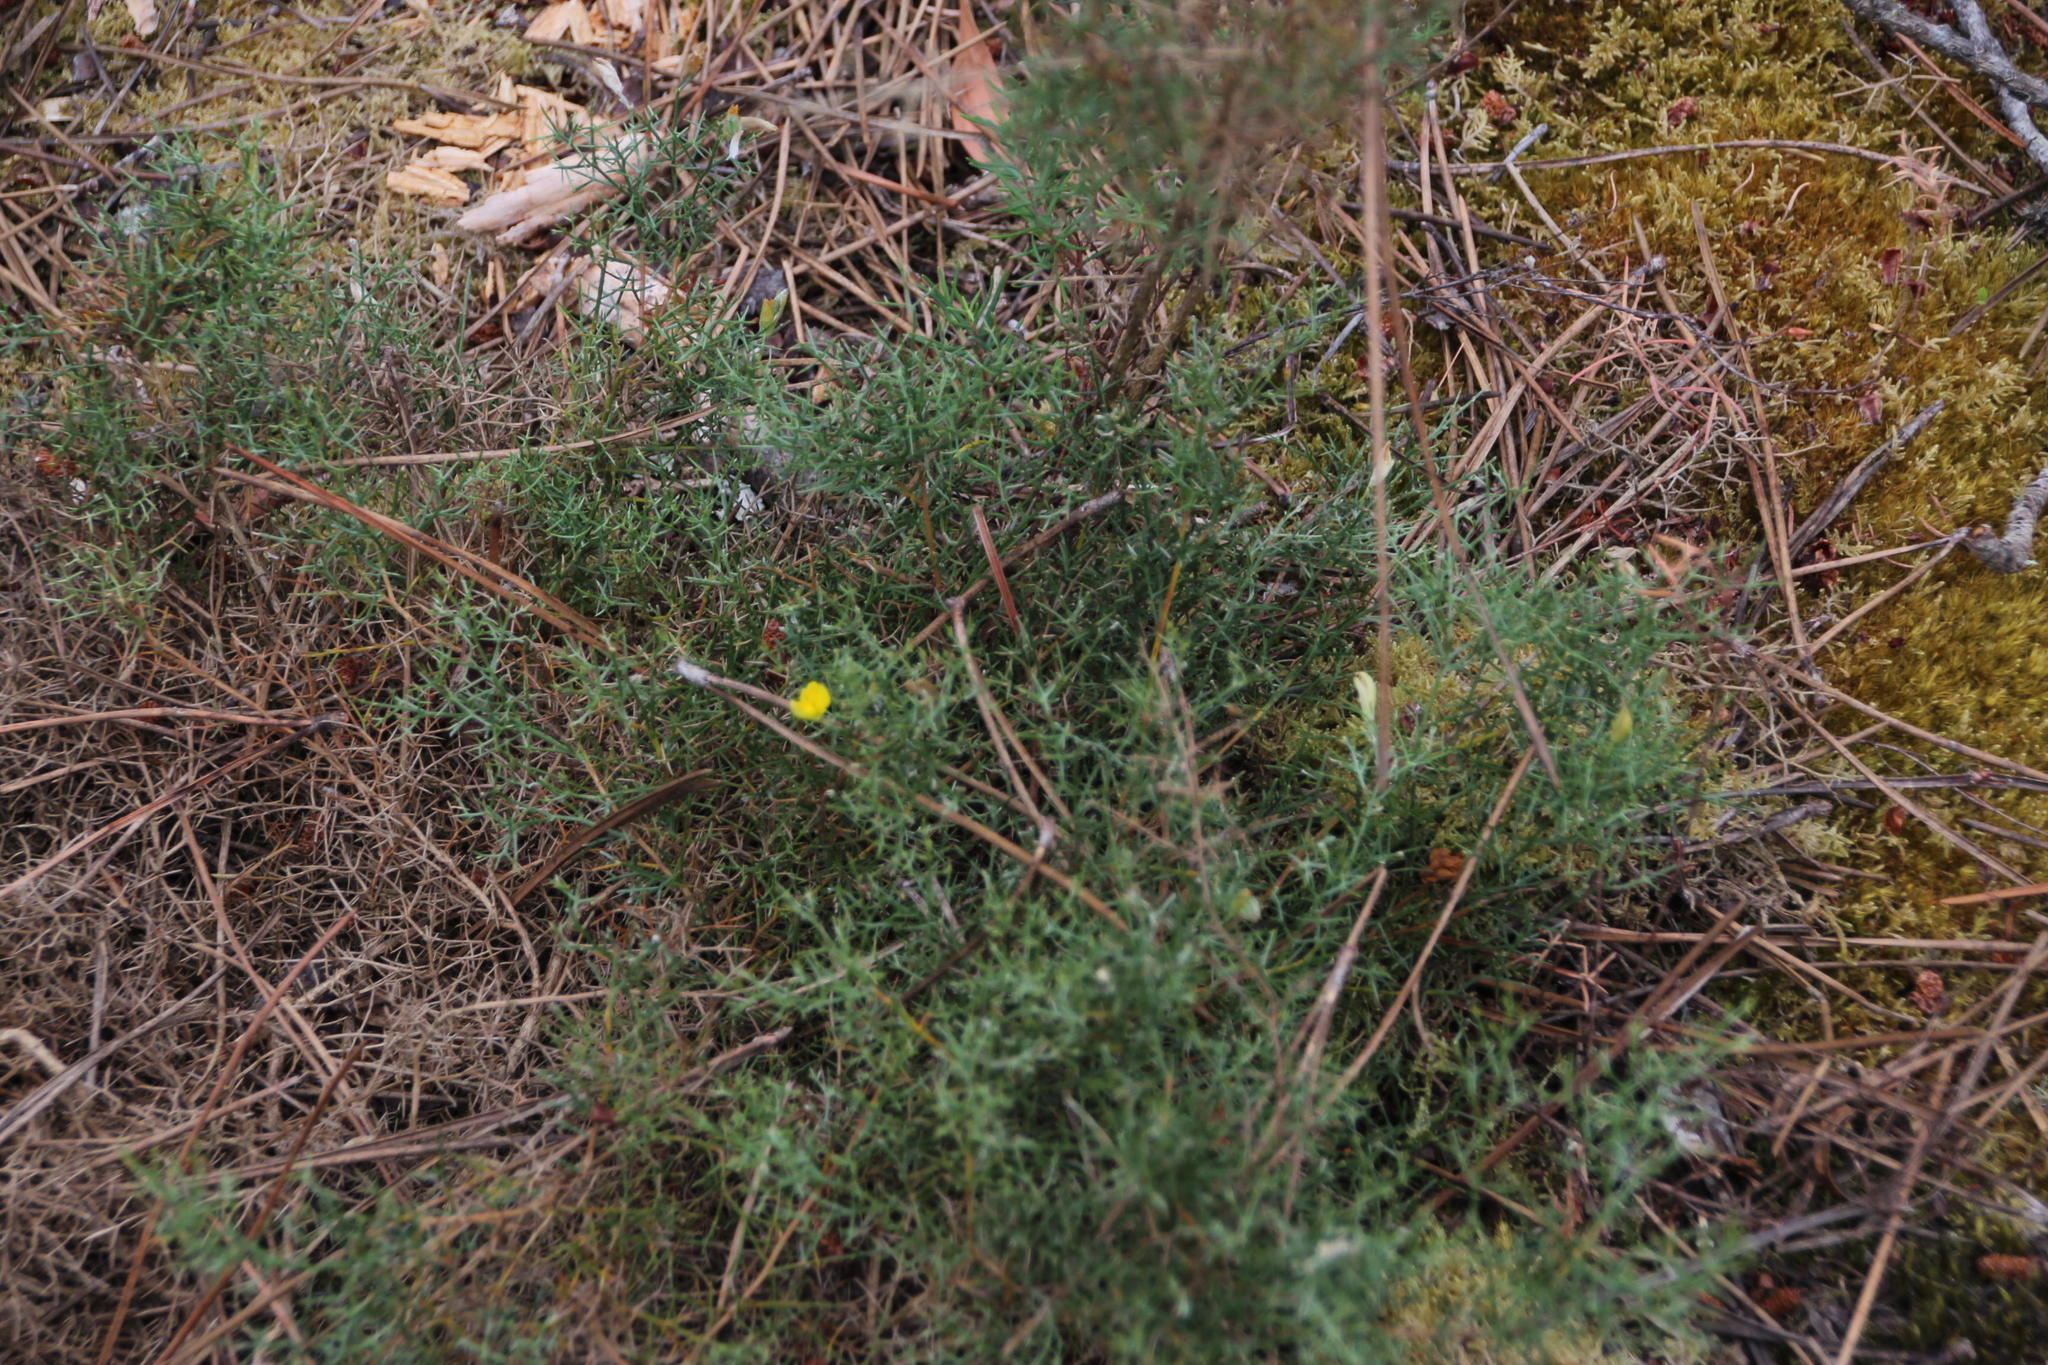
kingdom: Plantae
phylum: Tracheophyta
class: Magnoliopsida
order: Fabales
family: Fabaceae
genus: Stauracanthus
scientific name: Stauracanthus genistoides
